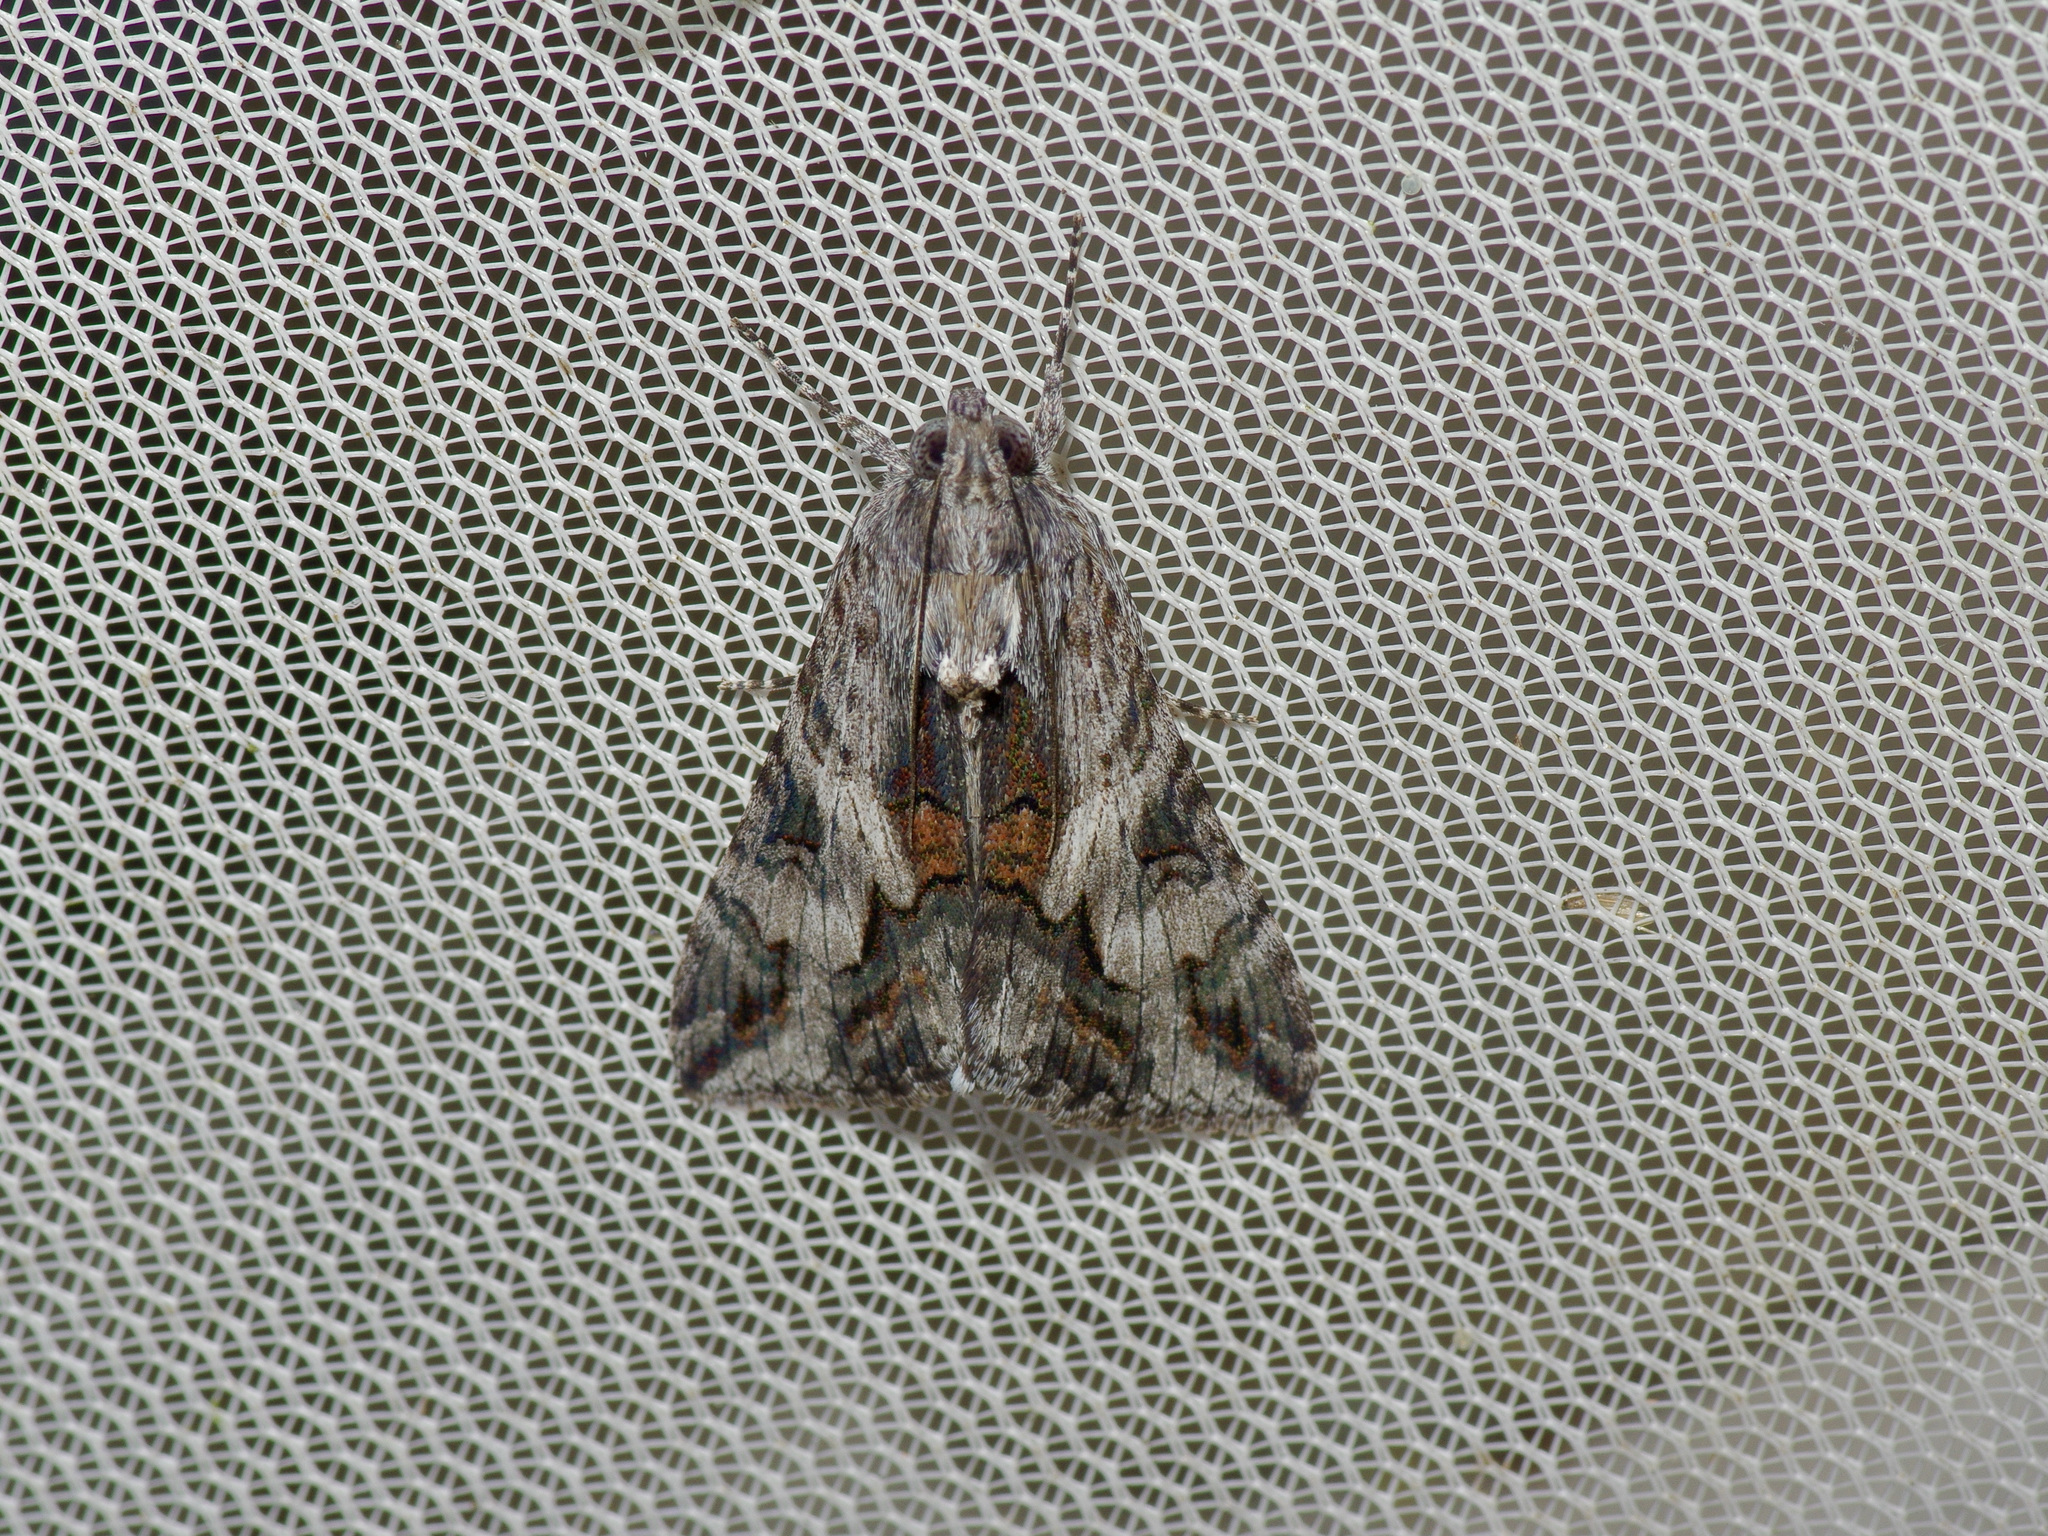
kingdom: Animalia
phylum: Arthropoda
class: Insecta
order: Lepidoptera
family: Erebidae
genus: Melipotis
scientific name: Melipotis jucunda
